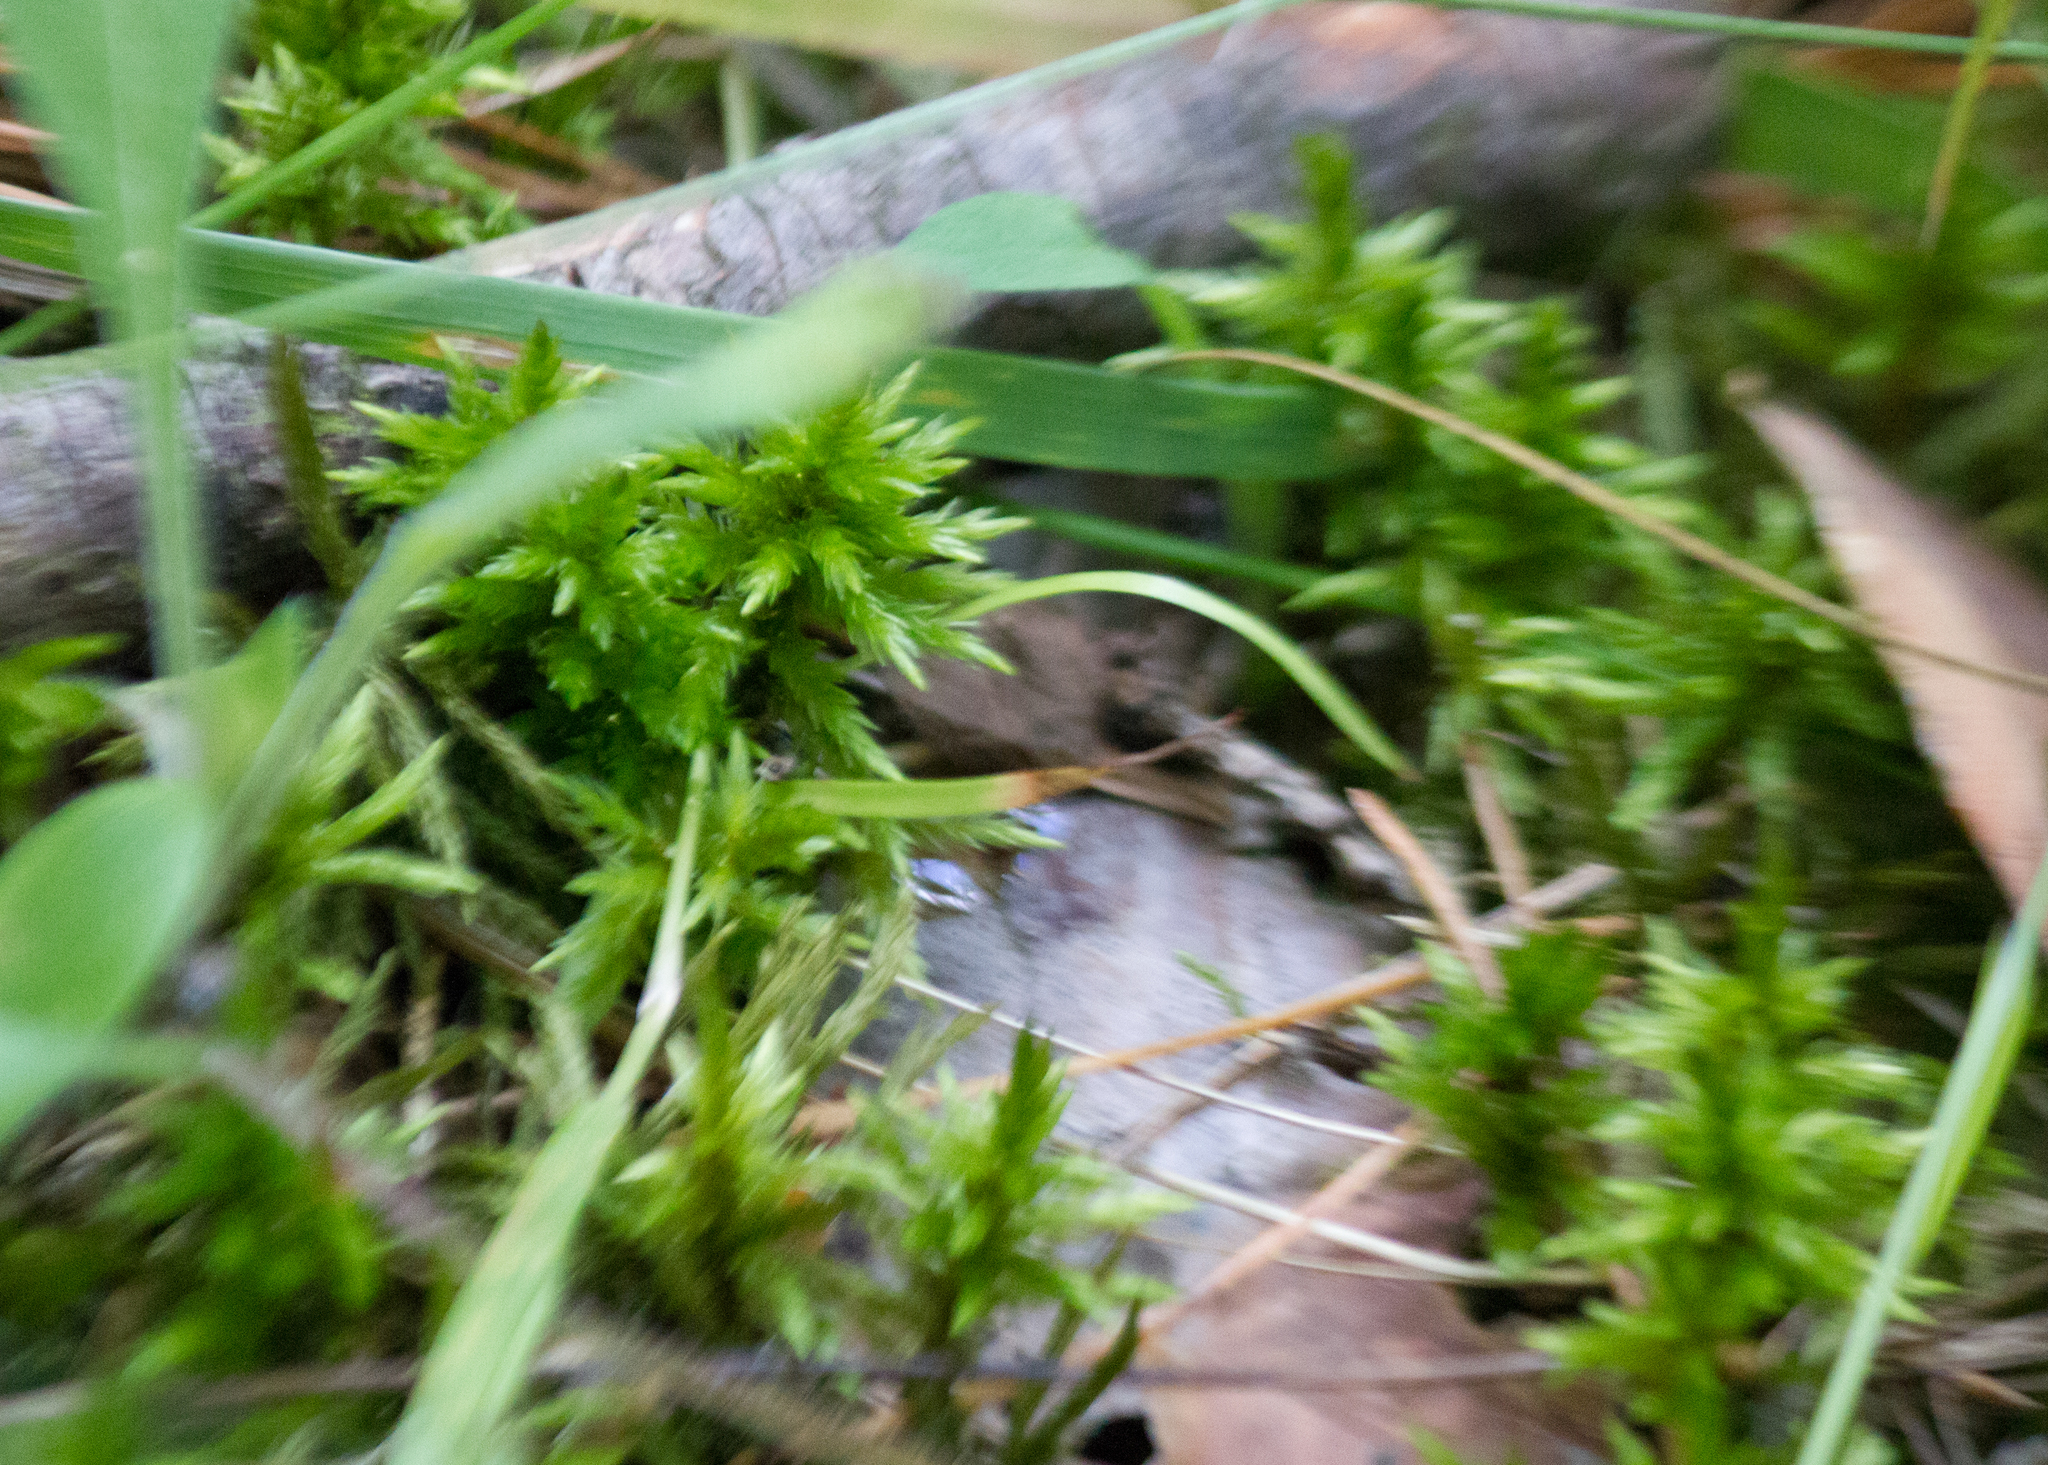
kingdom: Plantae
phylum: Bryophyta
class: Bryopsida
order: Hypnales
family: Climaciaceae
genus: Climacium
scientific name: Climacium dendroides
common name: Northern tree moss
